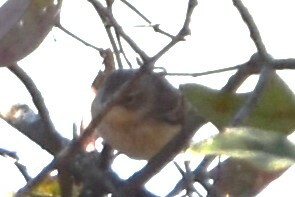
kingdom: Animalia
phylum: Chordata
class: Aves
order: Passeriformes
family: Parulidae
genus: Setophaga
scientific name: Setophaga coronata
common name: Myrtle warbler
